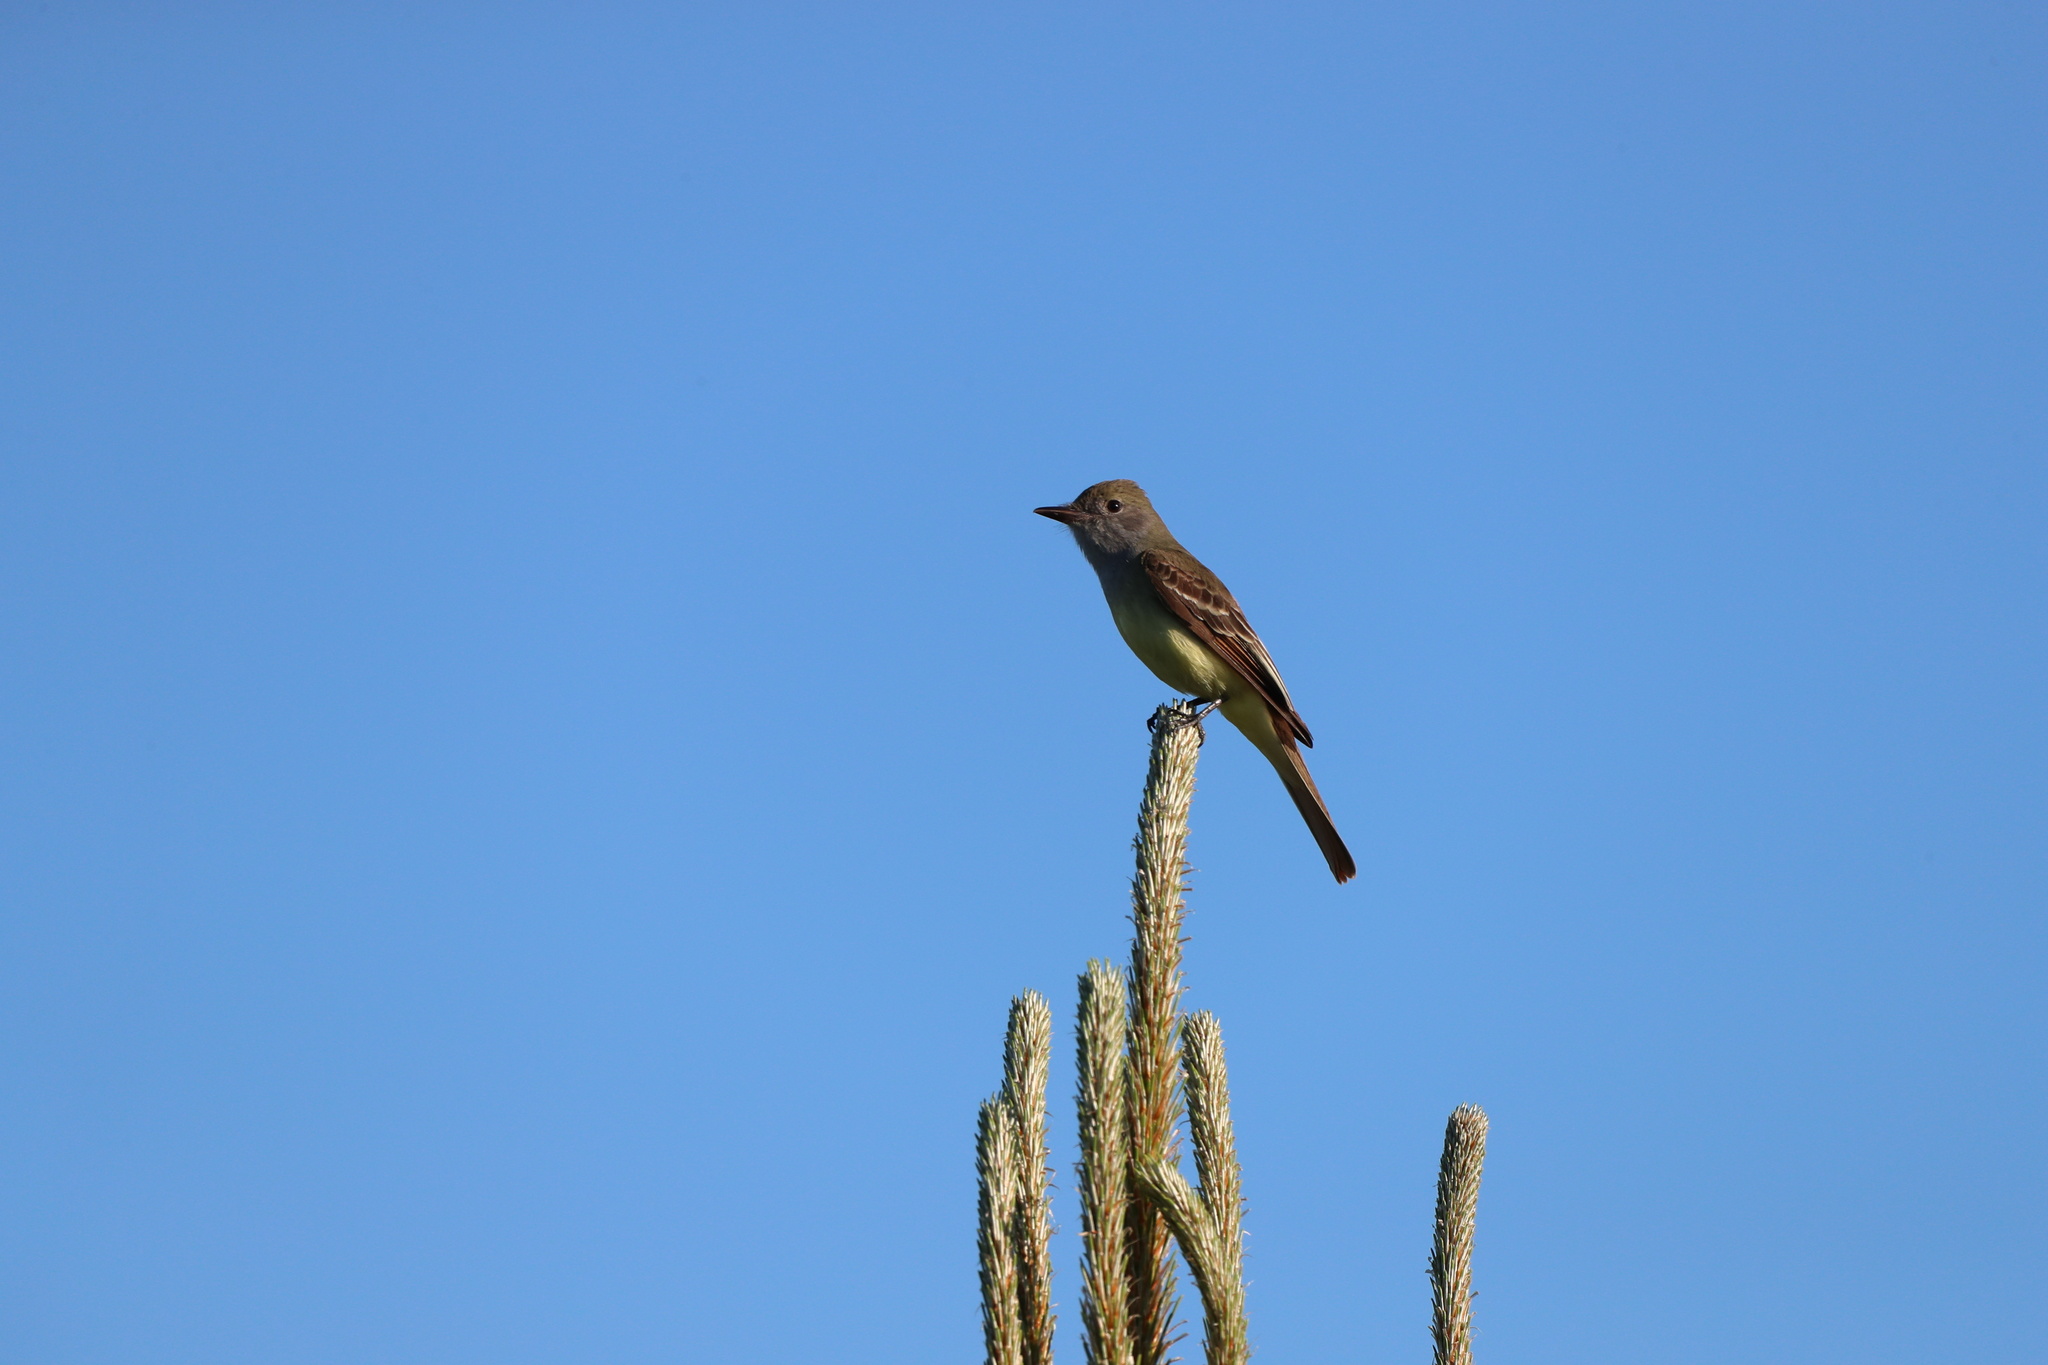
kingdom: Animalia
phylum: Chordata
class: Aves
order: Passeriformes
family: Tyrannidae
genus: Myiarchus
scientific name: Myiarchus crinitus
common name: Great crested flycatcher
